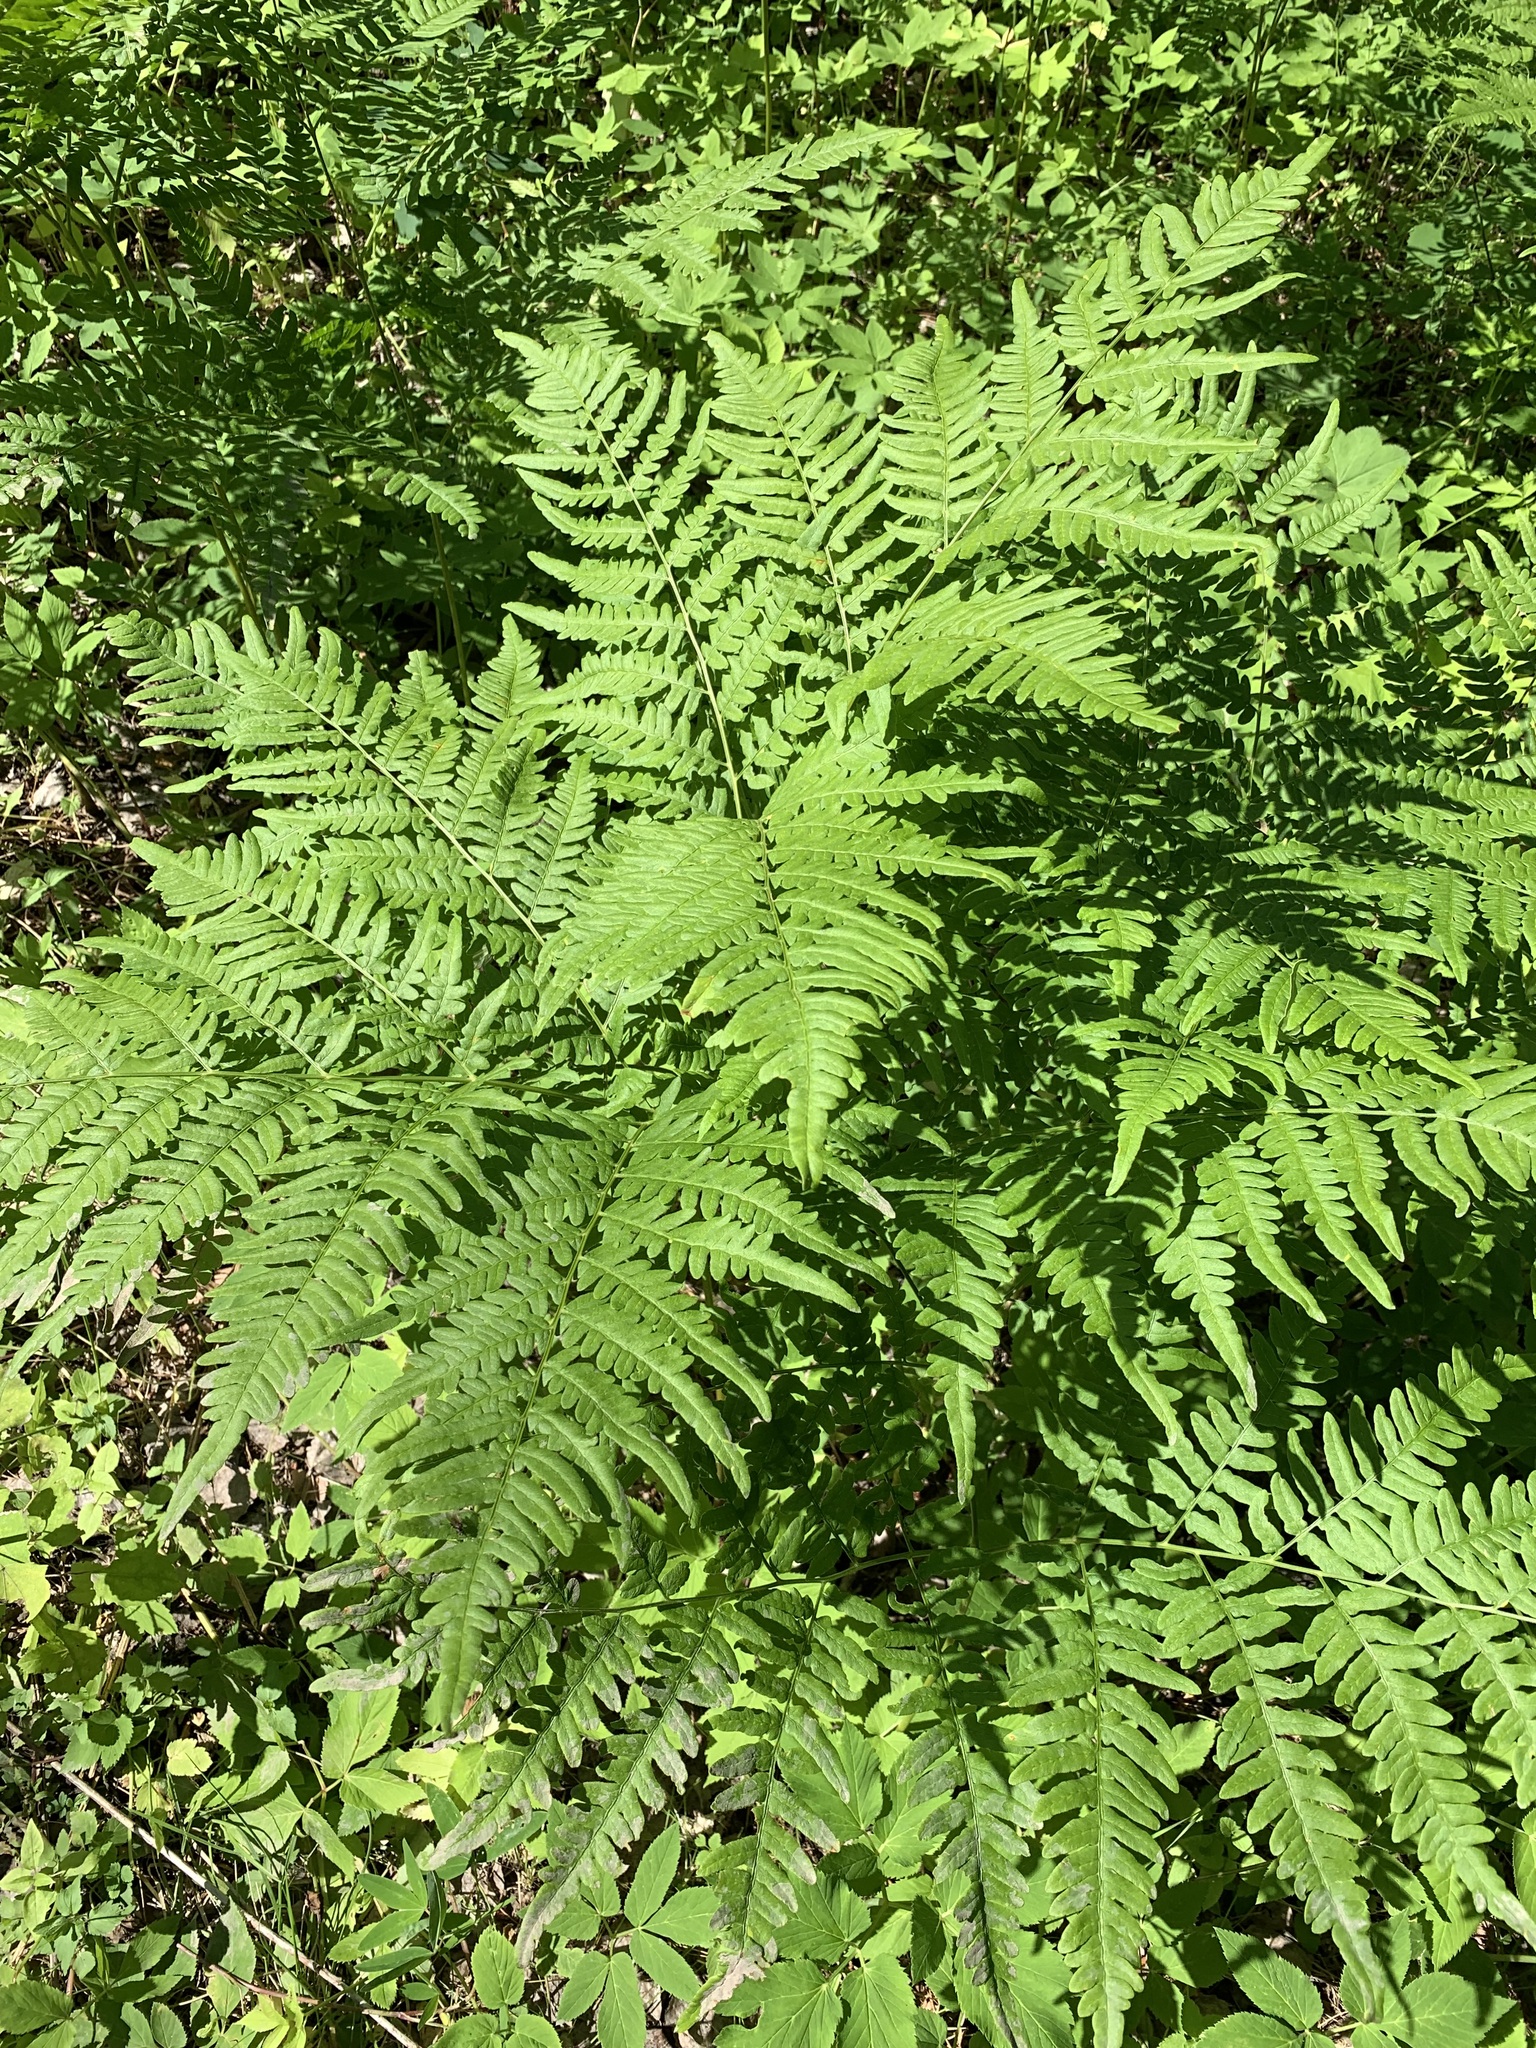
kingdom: Plantae
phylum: Tracheophyta
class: Polypodiopsida
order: Polypodiales
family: Dennstaedtiaceae
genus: Pteridium
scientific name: Pteridium aquilinum
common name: Bracken
